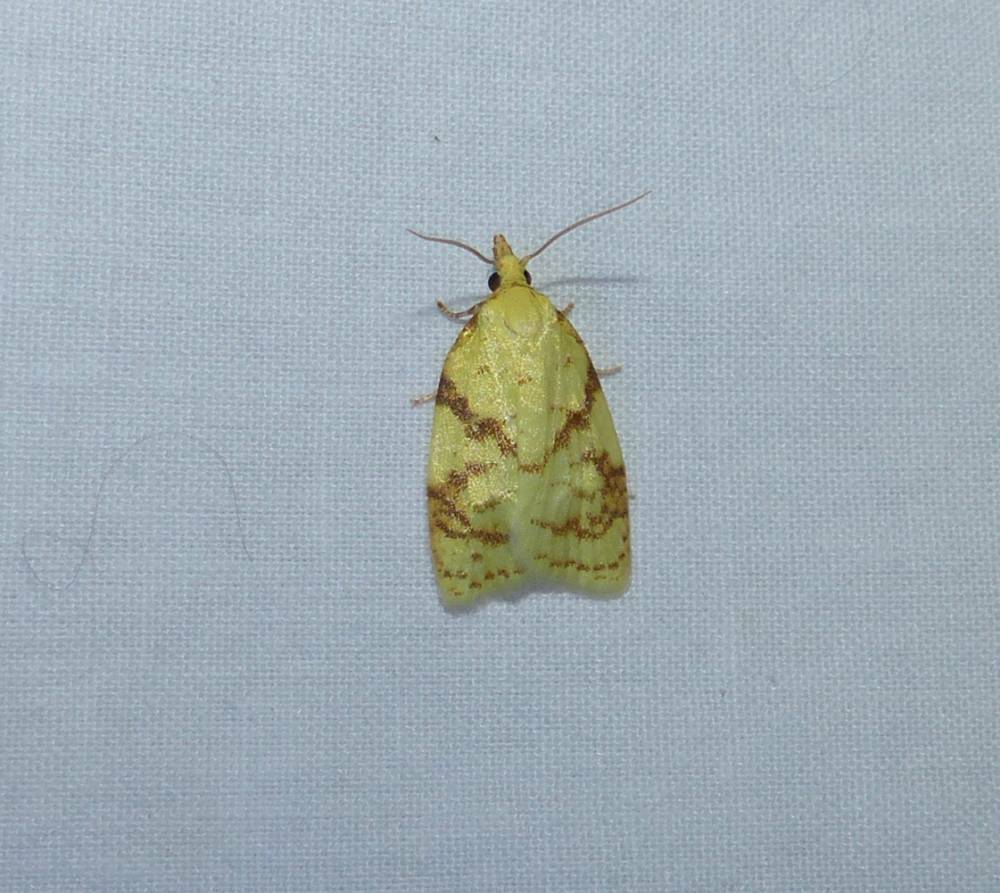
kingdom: Animalia
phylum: Arthropoda
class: Insecta
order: Lepidoptera
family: Tortricidae
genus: Cenopis
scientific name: Cenopis pettitana
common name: Maple-basswood leafroller moth
